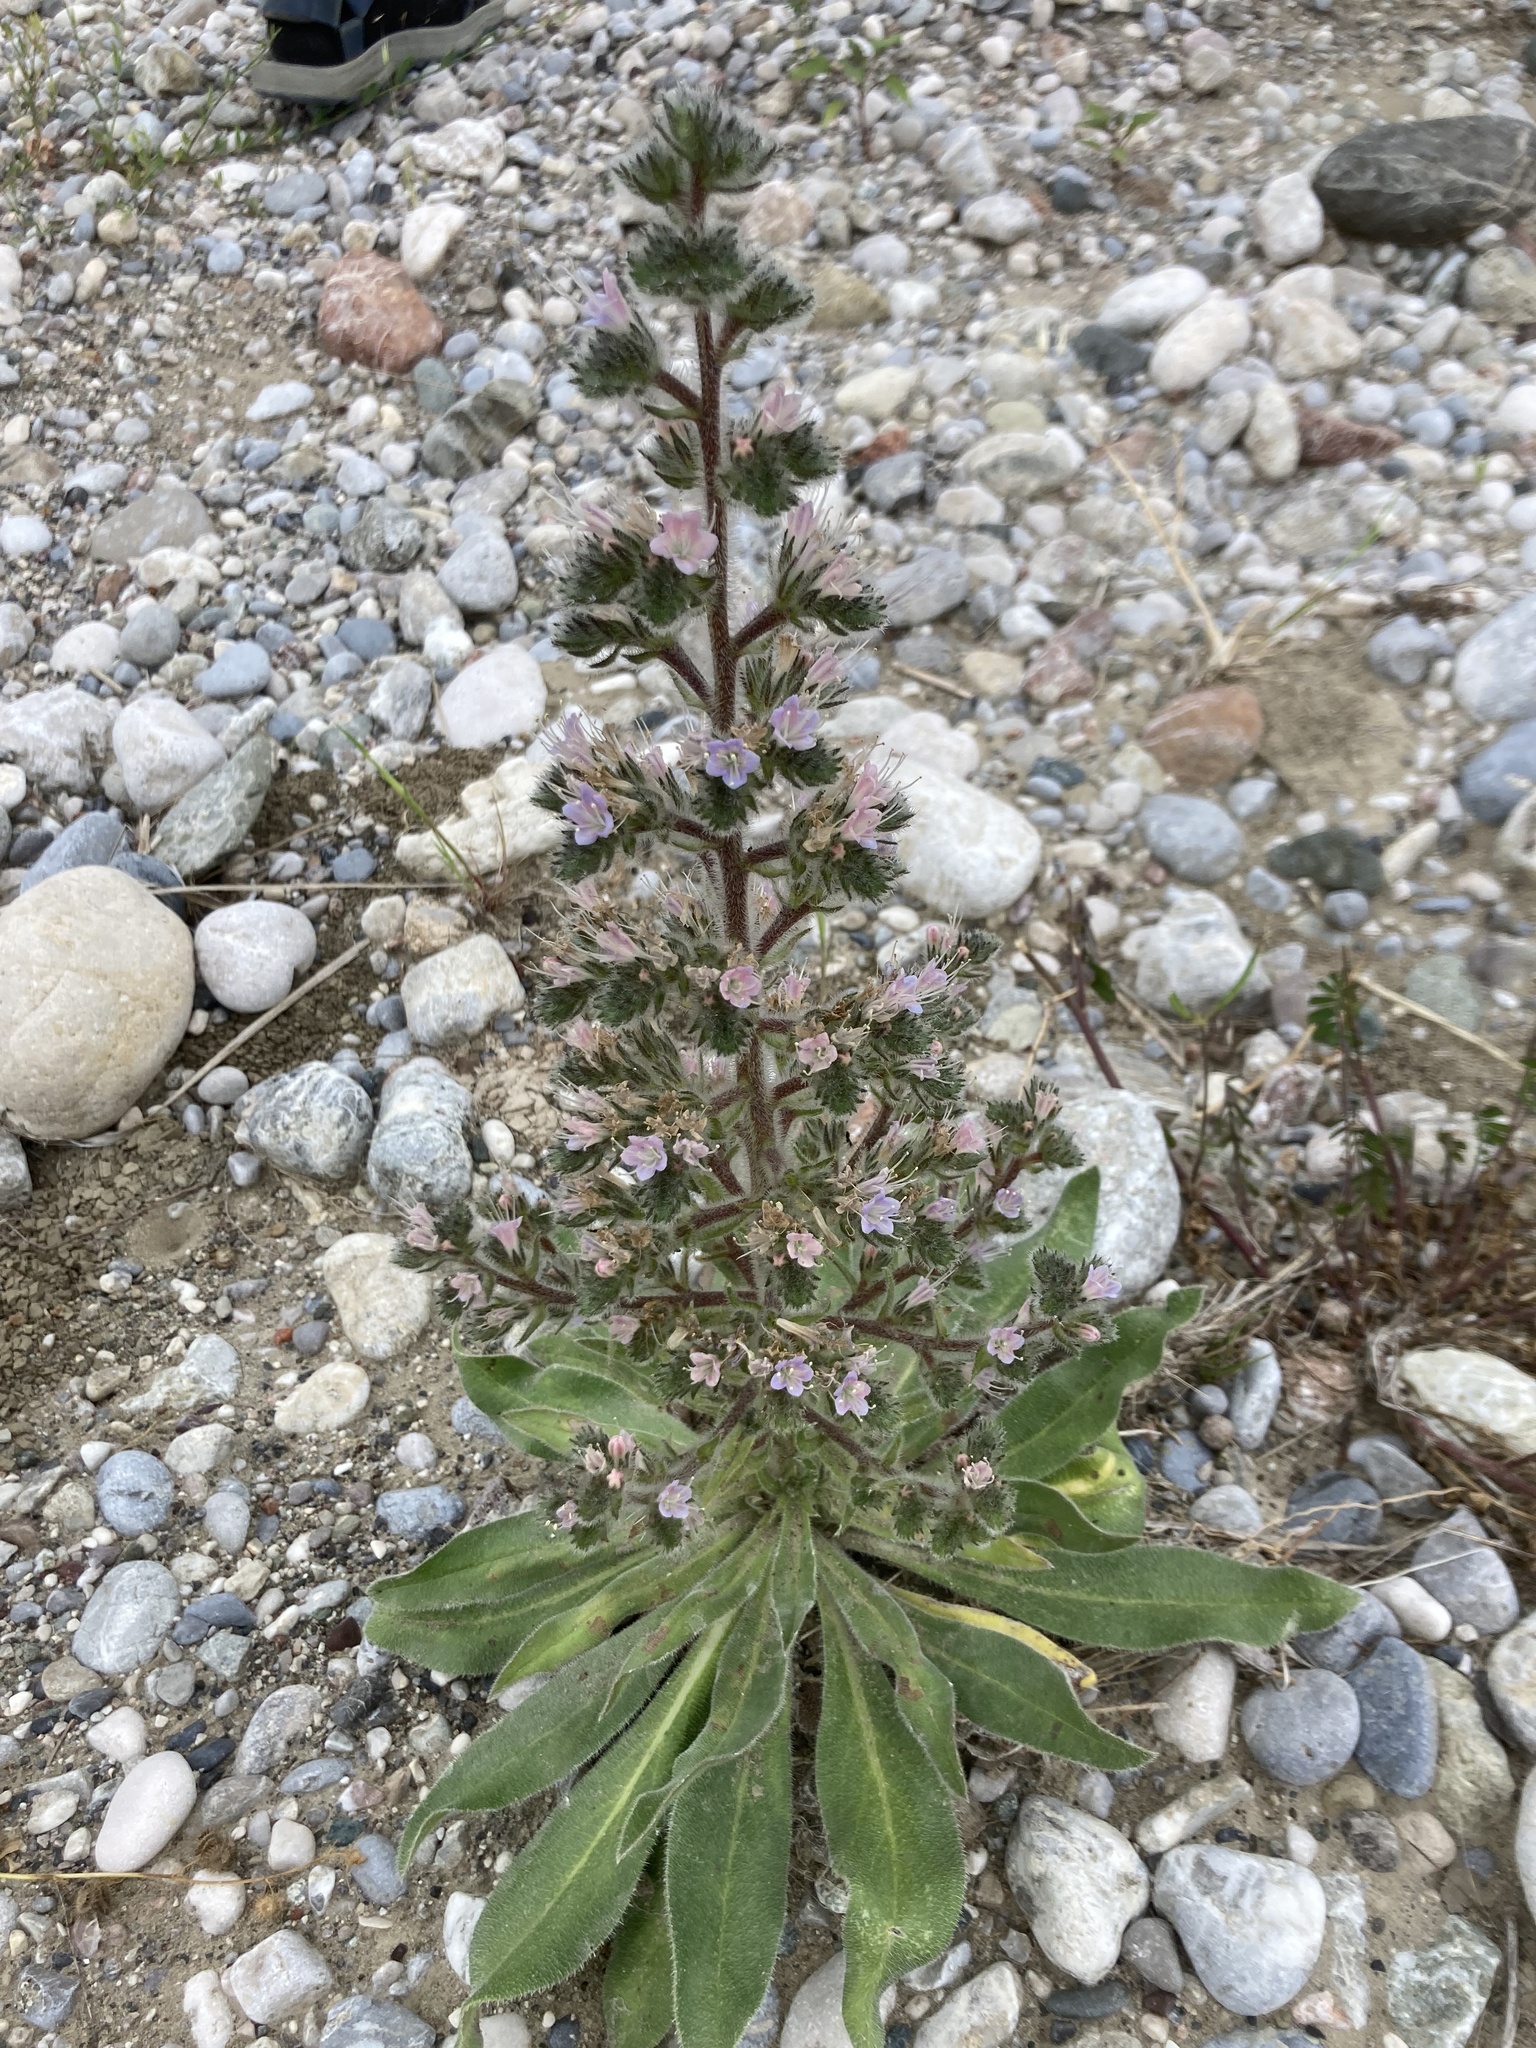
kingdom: Plantae
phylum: Tracheophyta
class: Magnoliopsida
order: Boraginales
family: Boraginaceae
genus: Echium
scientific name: Echium italicum
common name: Italian viper's bugloss
